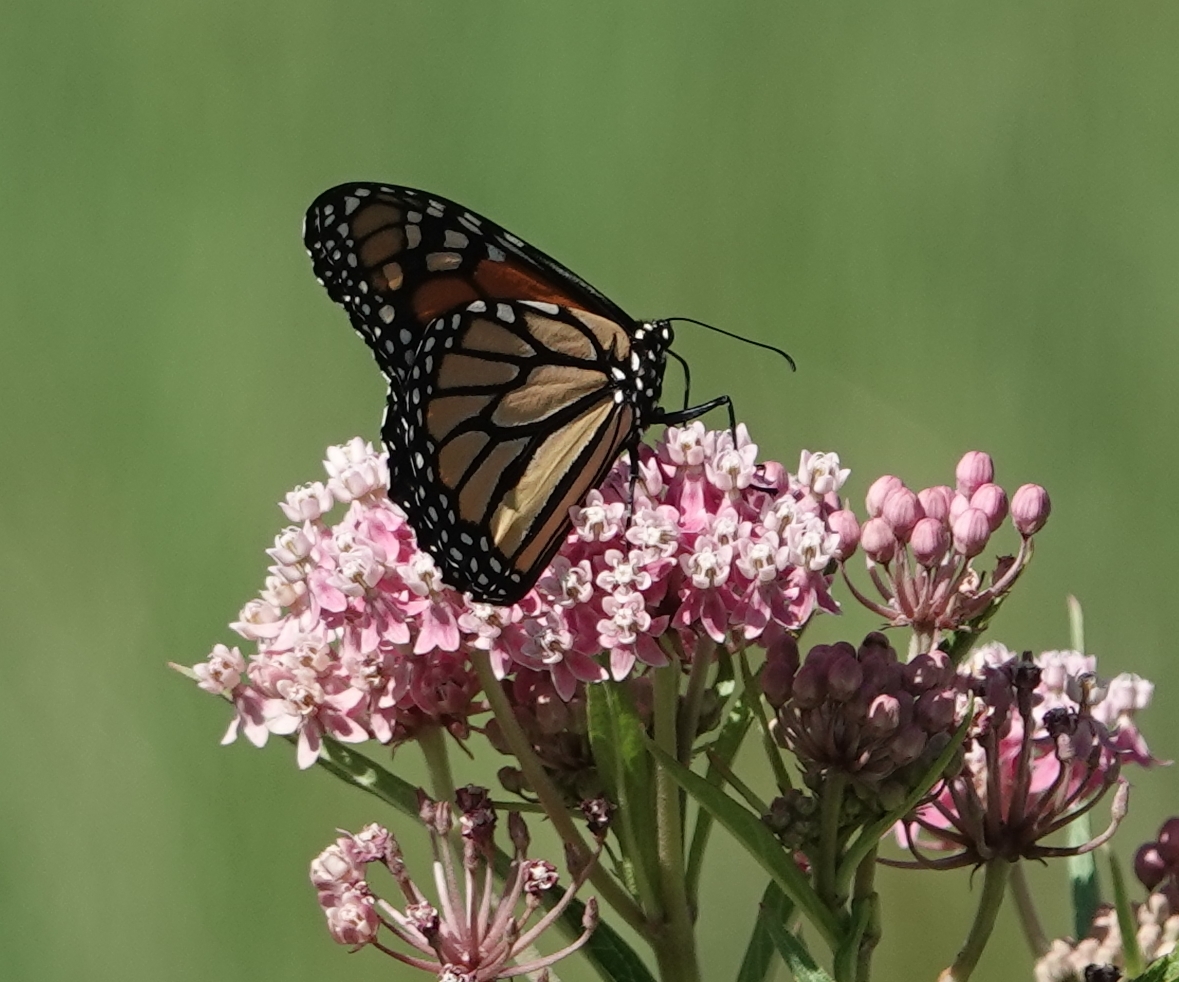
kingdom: Animalia
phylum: Arthropoda
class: Insecta
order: Lepidoptera
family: Nymphalidae
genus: Danaus
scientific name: Danaus plexippus
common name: Monarch
